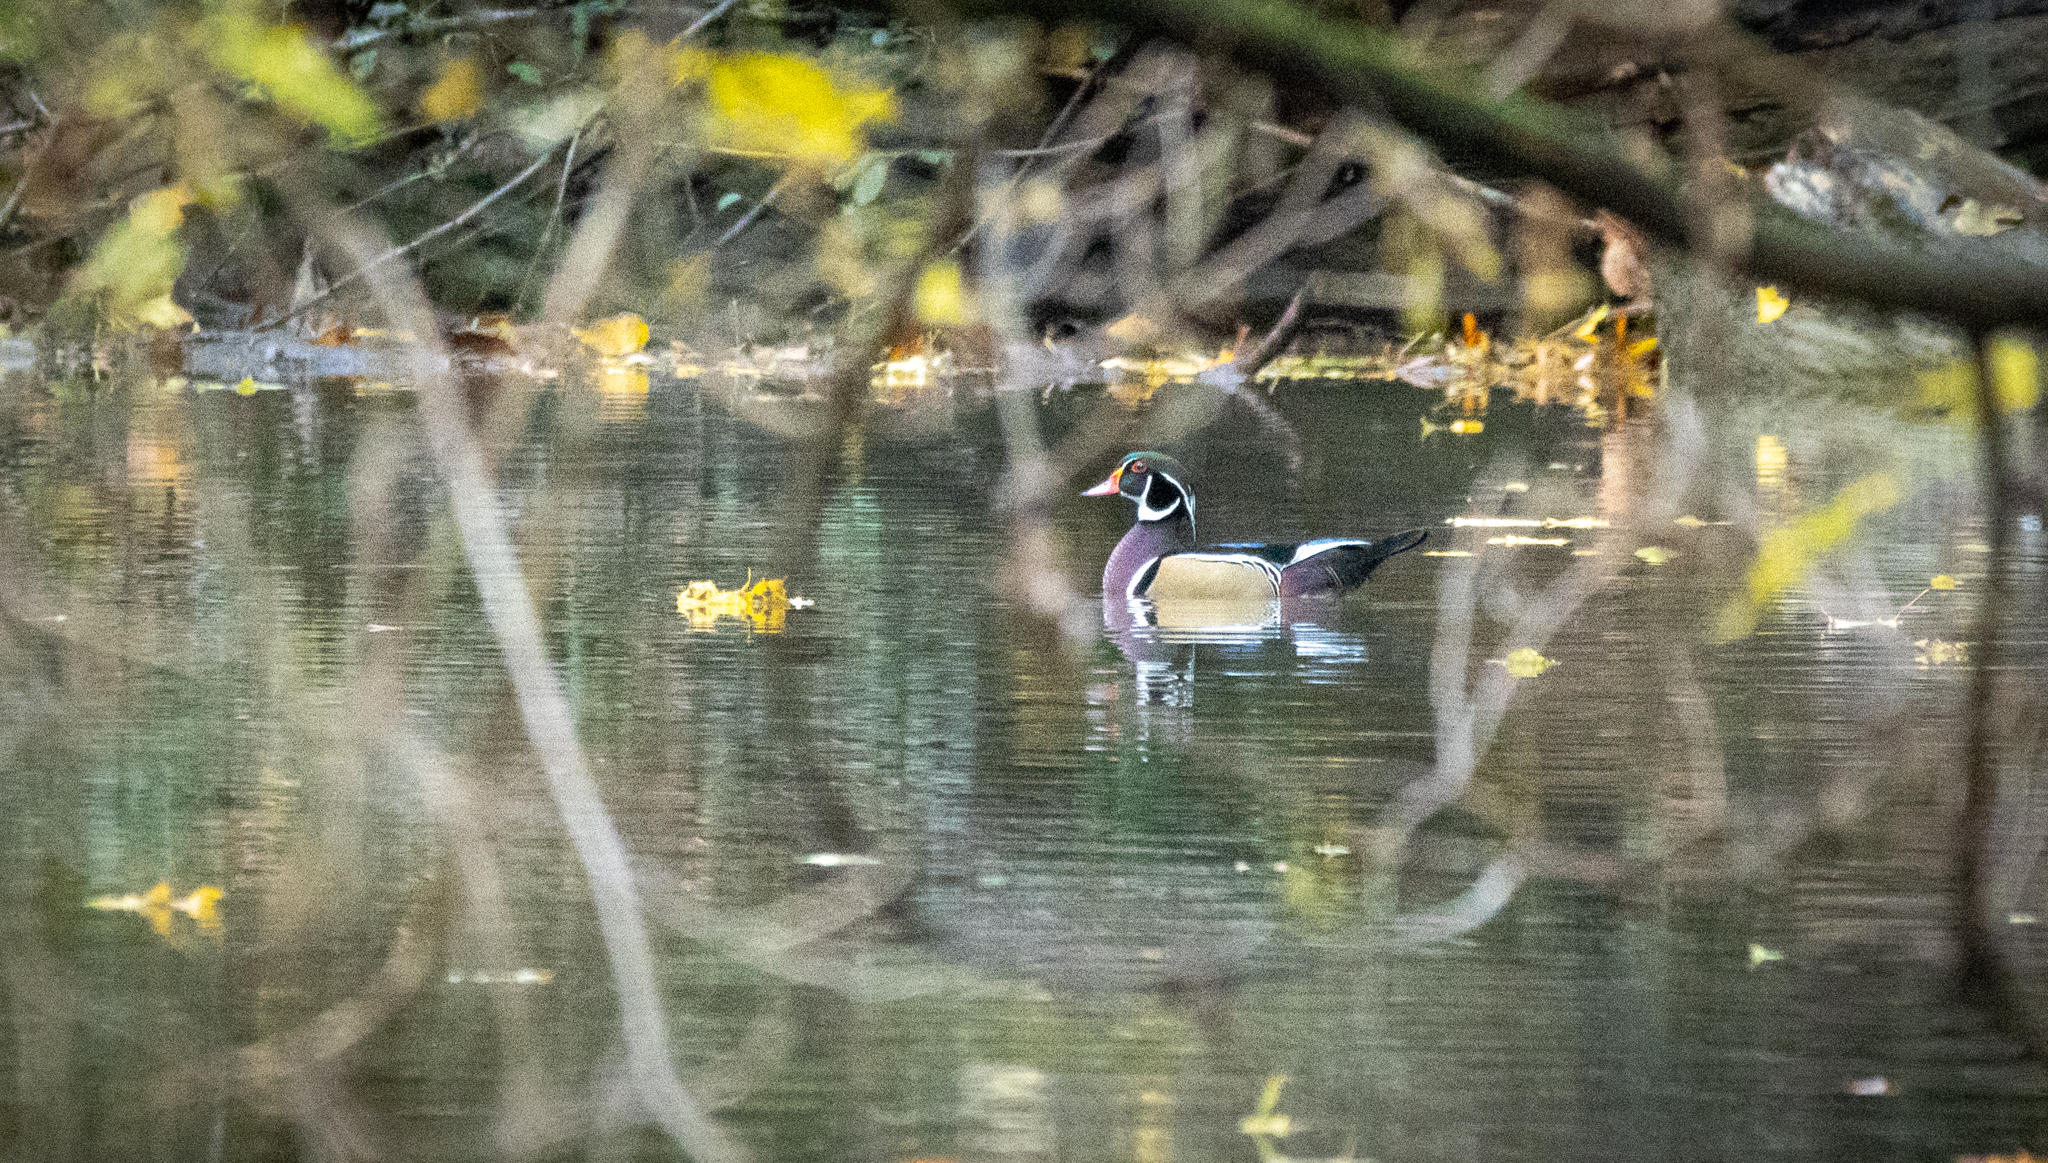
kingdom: Animalia
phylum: Chordata
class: Aves
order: Anseriformes
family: Anatidae
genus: Aix
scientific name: Aix sponsa
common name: Wood duck
